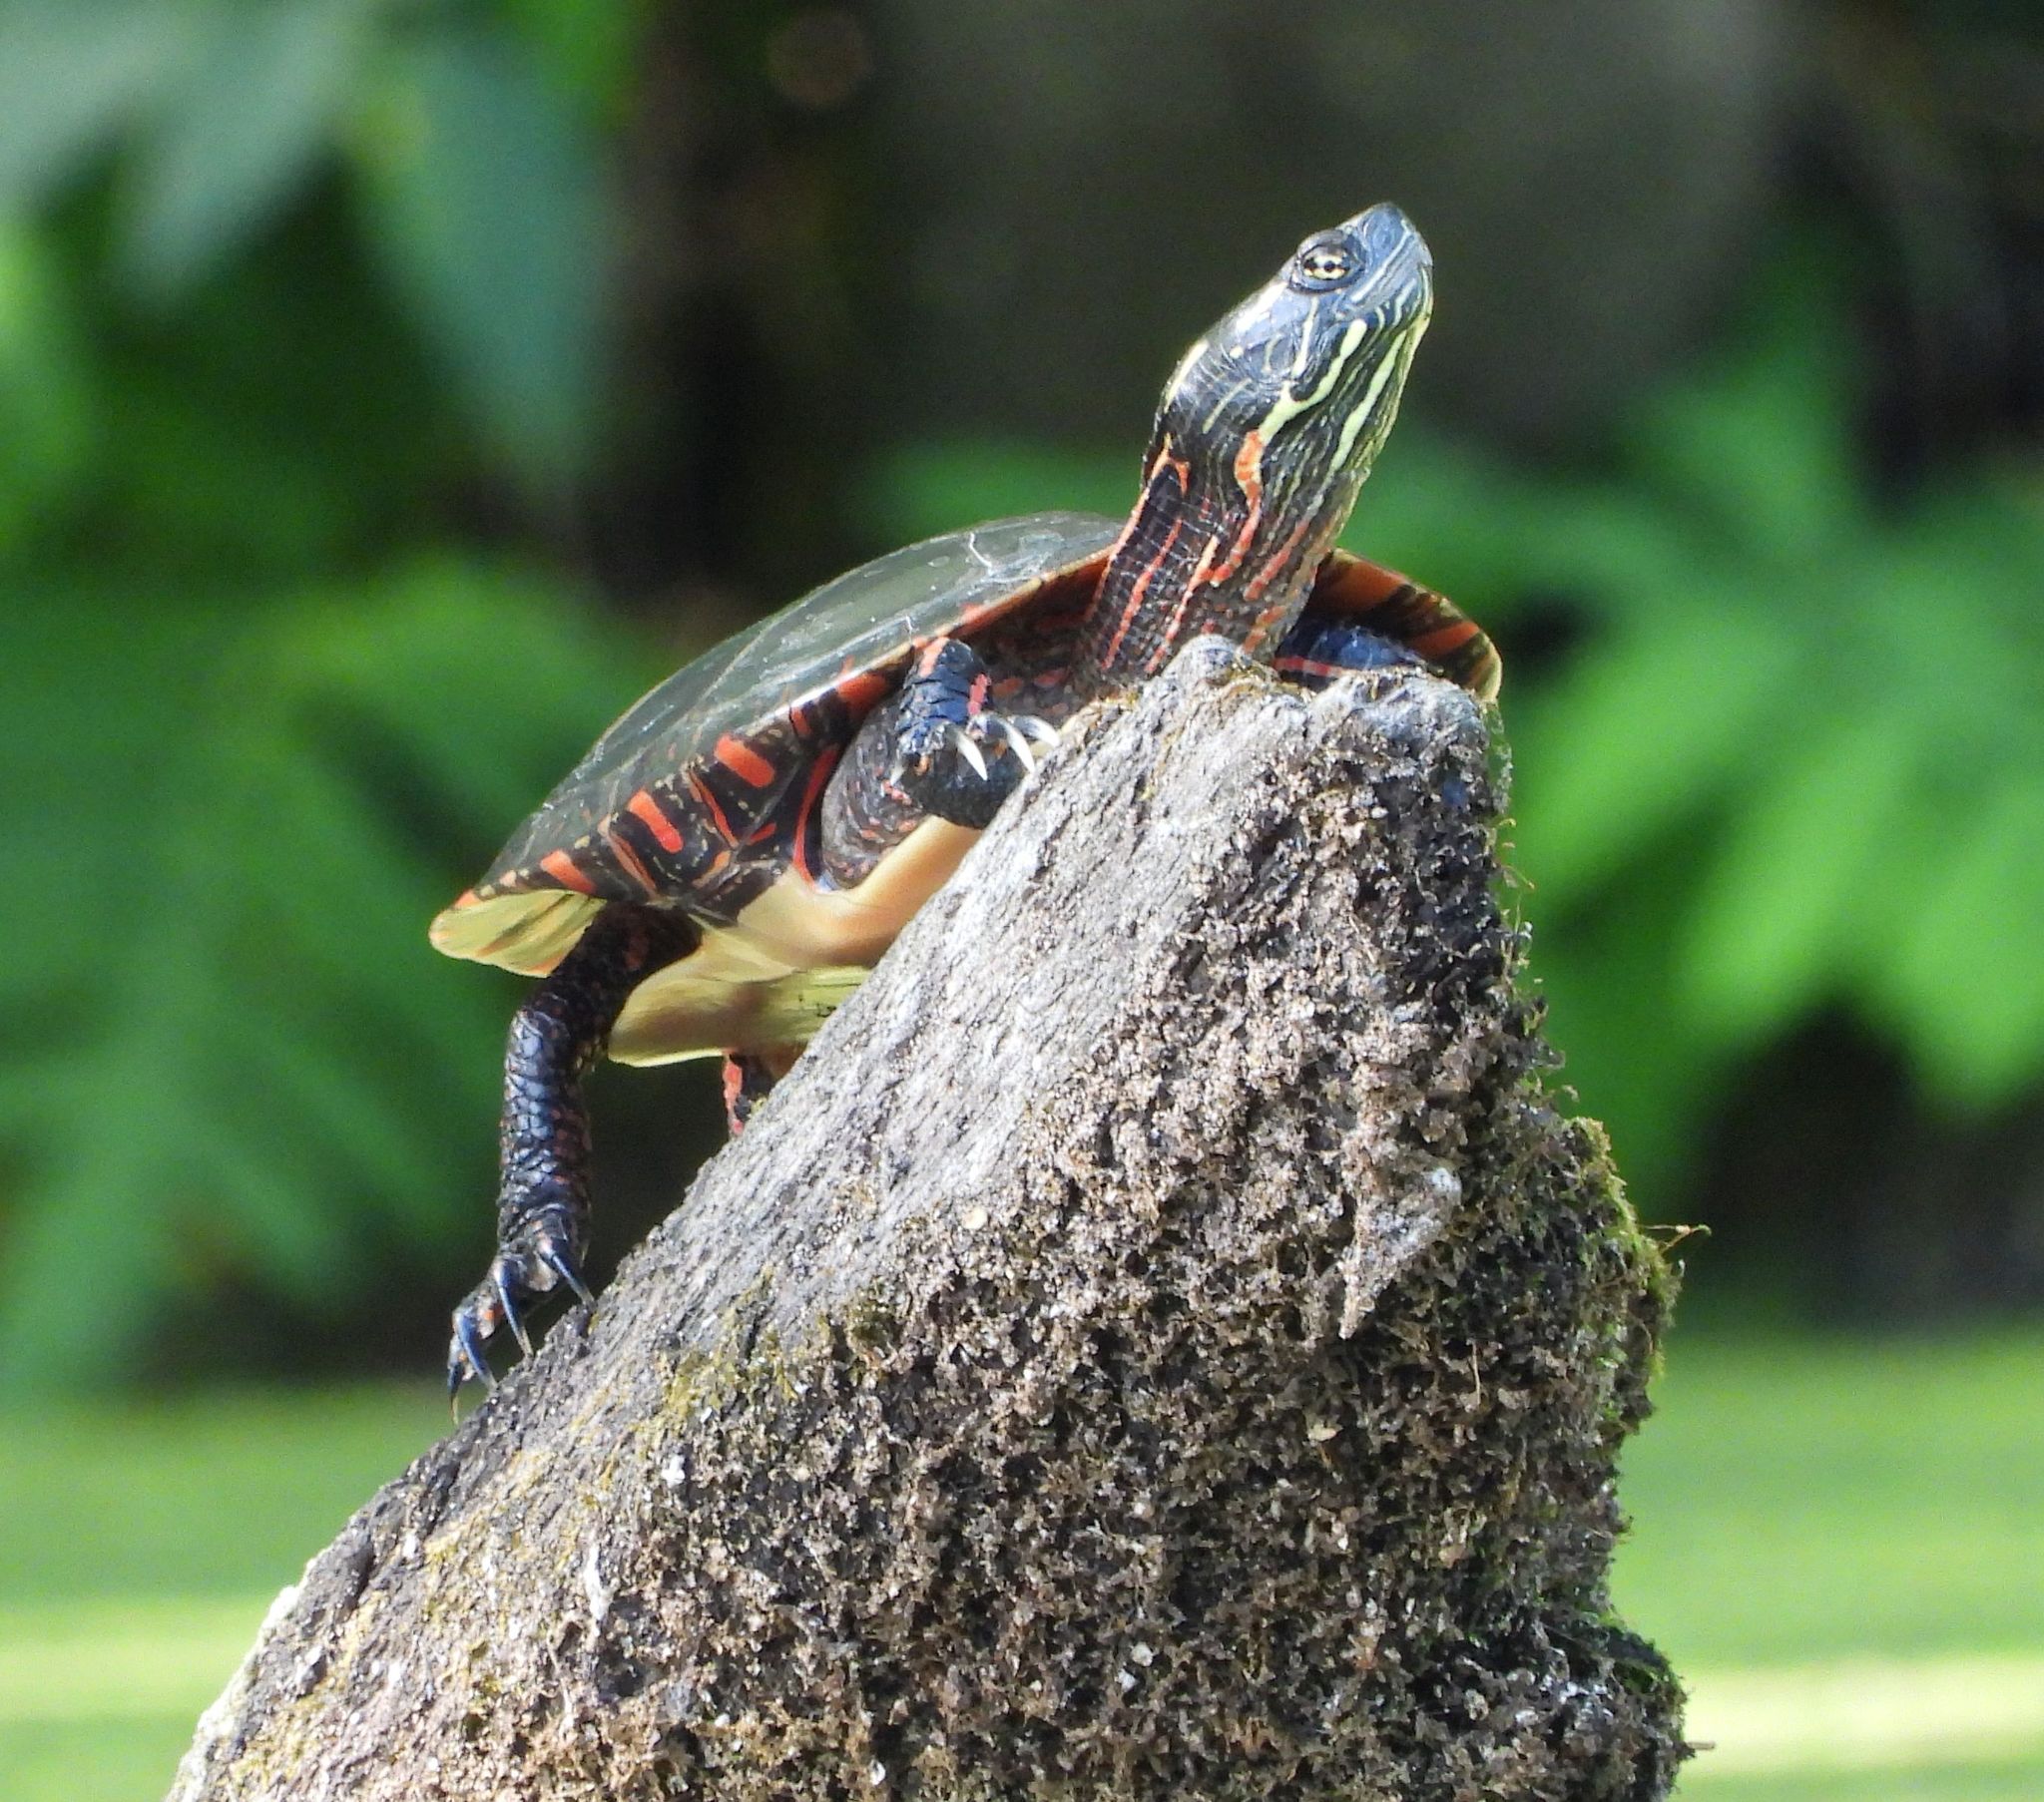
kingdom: Animalia
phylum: Chordata
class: Testudines
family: Emydidae
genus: Chrysemys
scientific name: Chrysemys picta
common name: Painted turtle
